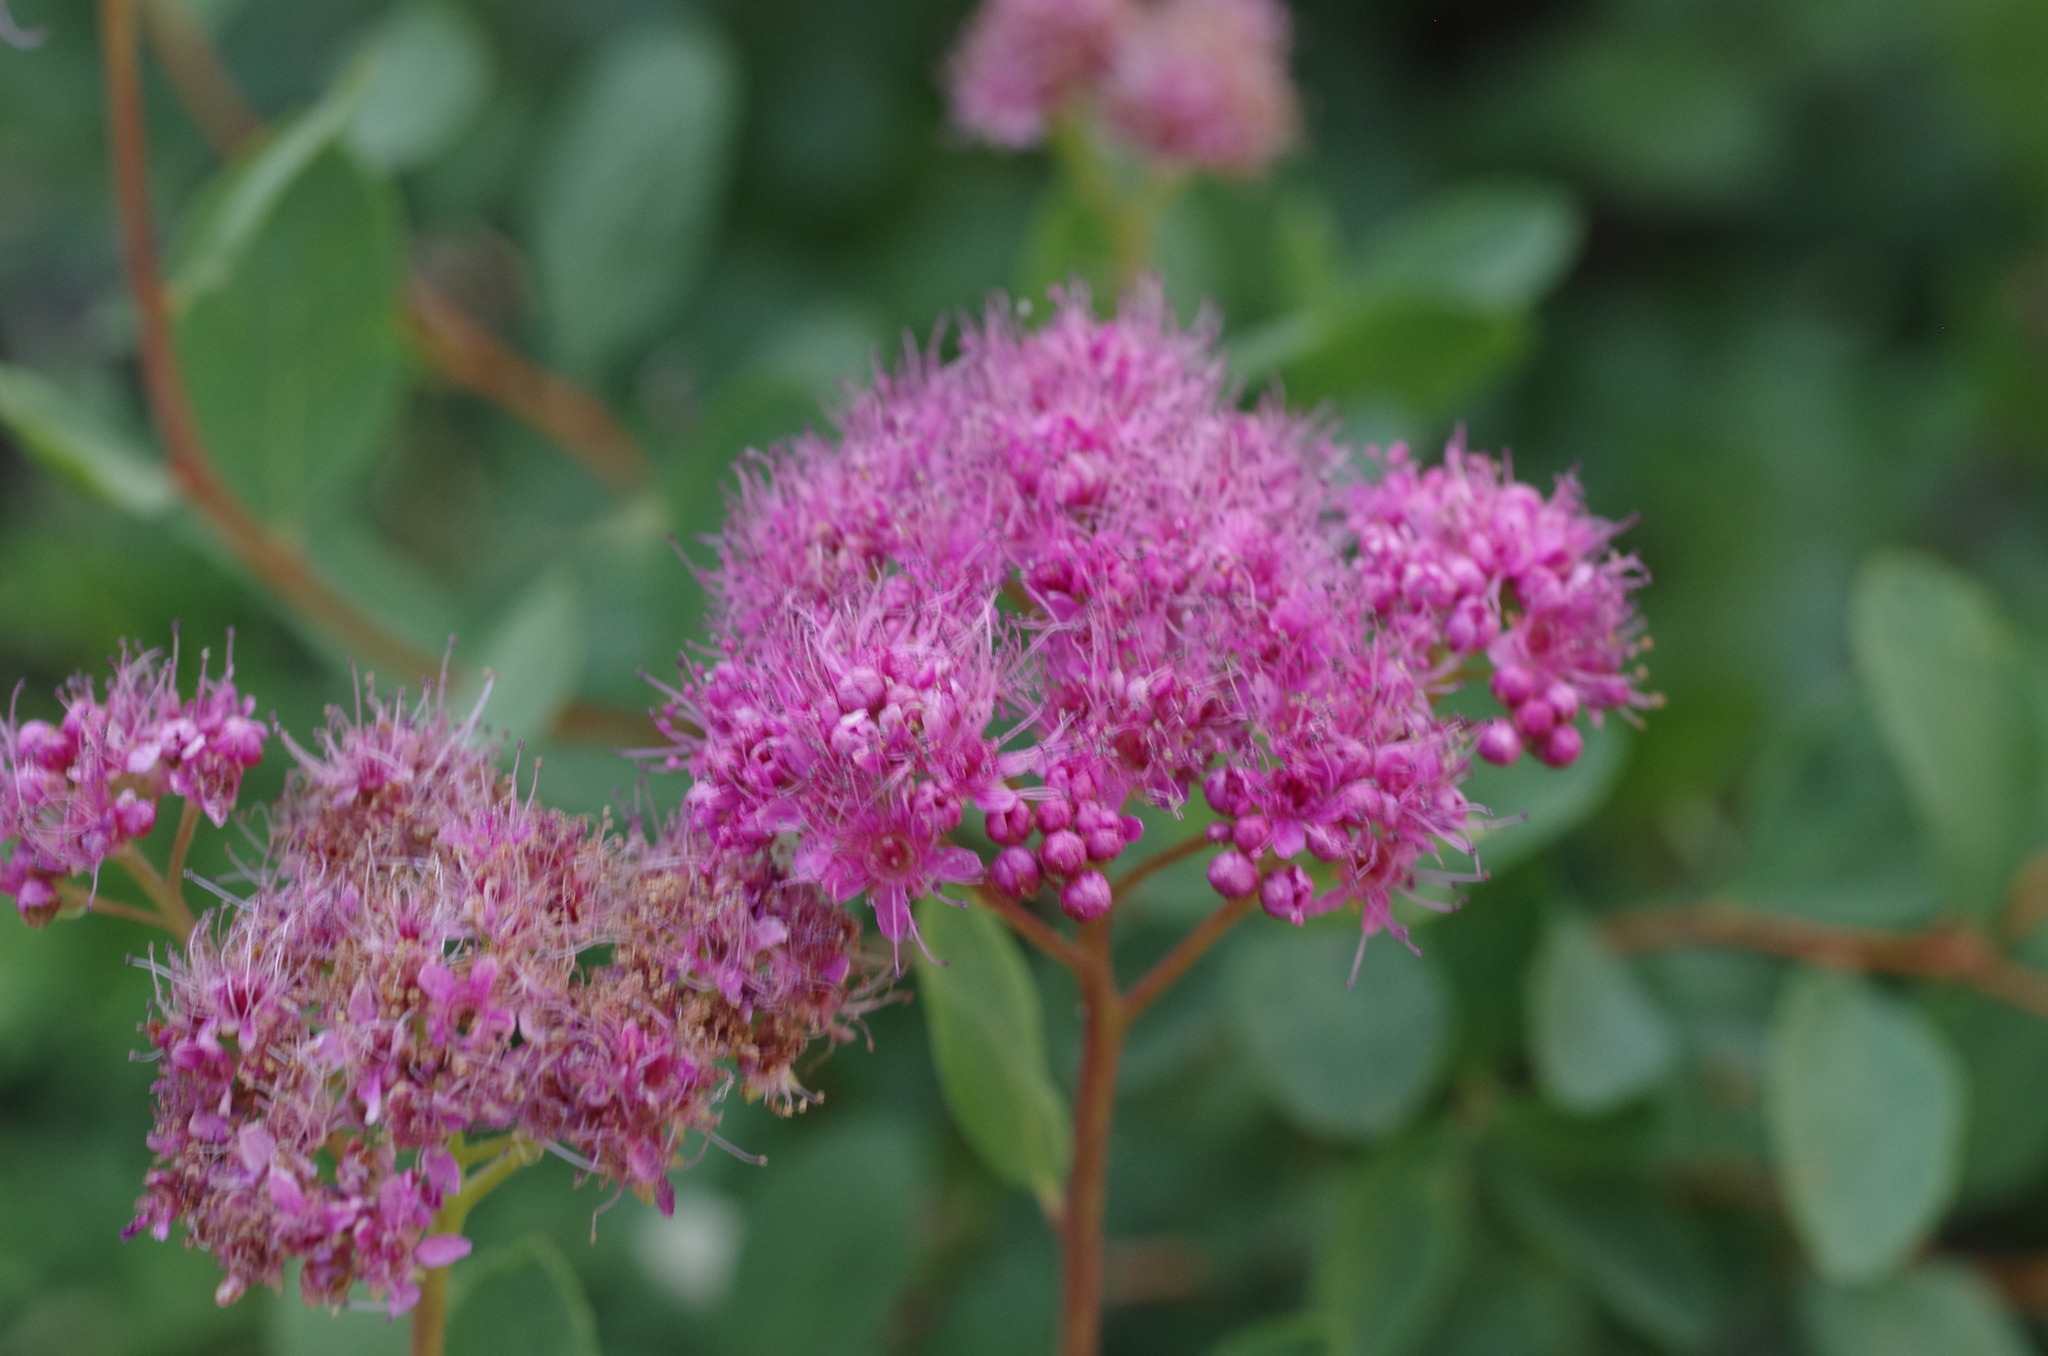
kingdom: Plantae
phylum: Tracheophyta
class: Magnoliopsida
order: Rosales
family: Rosaceae
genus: Spiraea
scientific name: Spiraea splendens
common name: Subalpine meadowsweet
